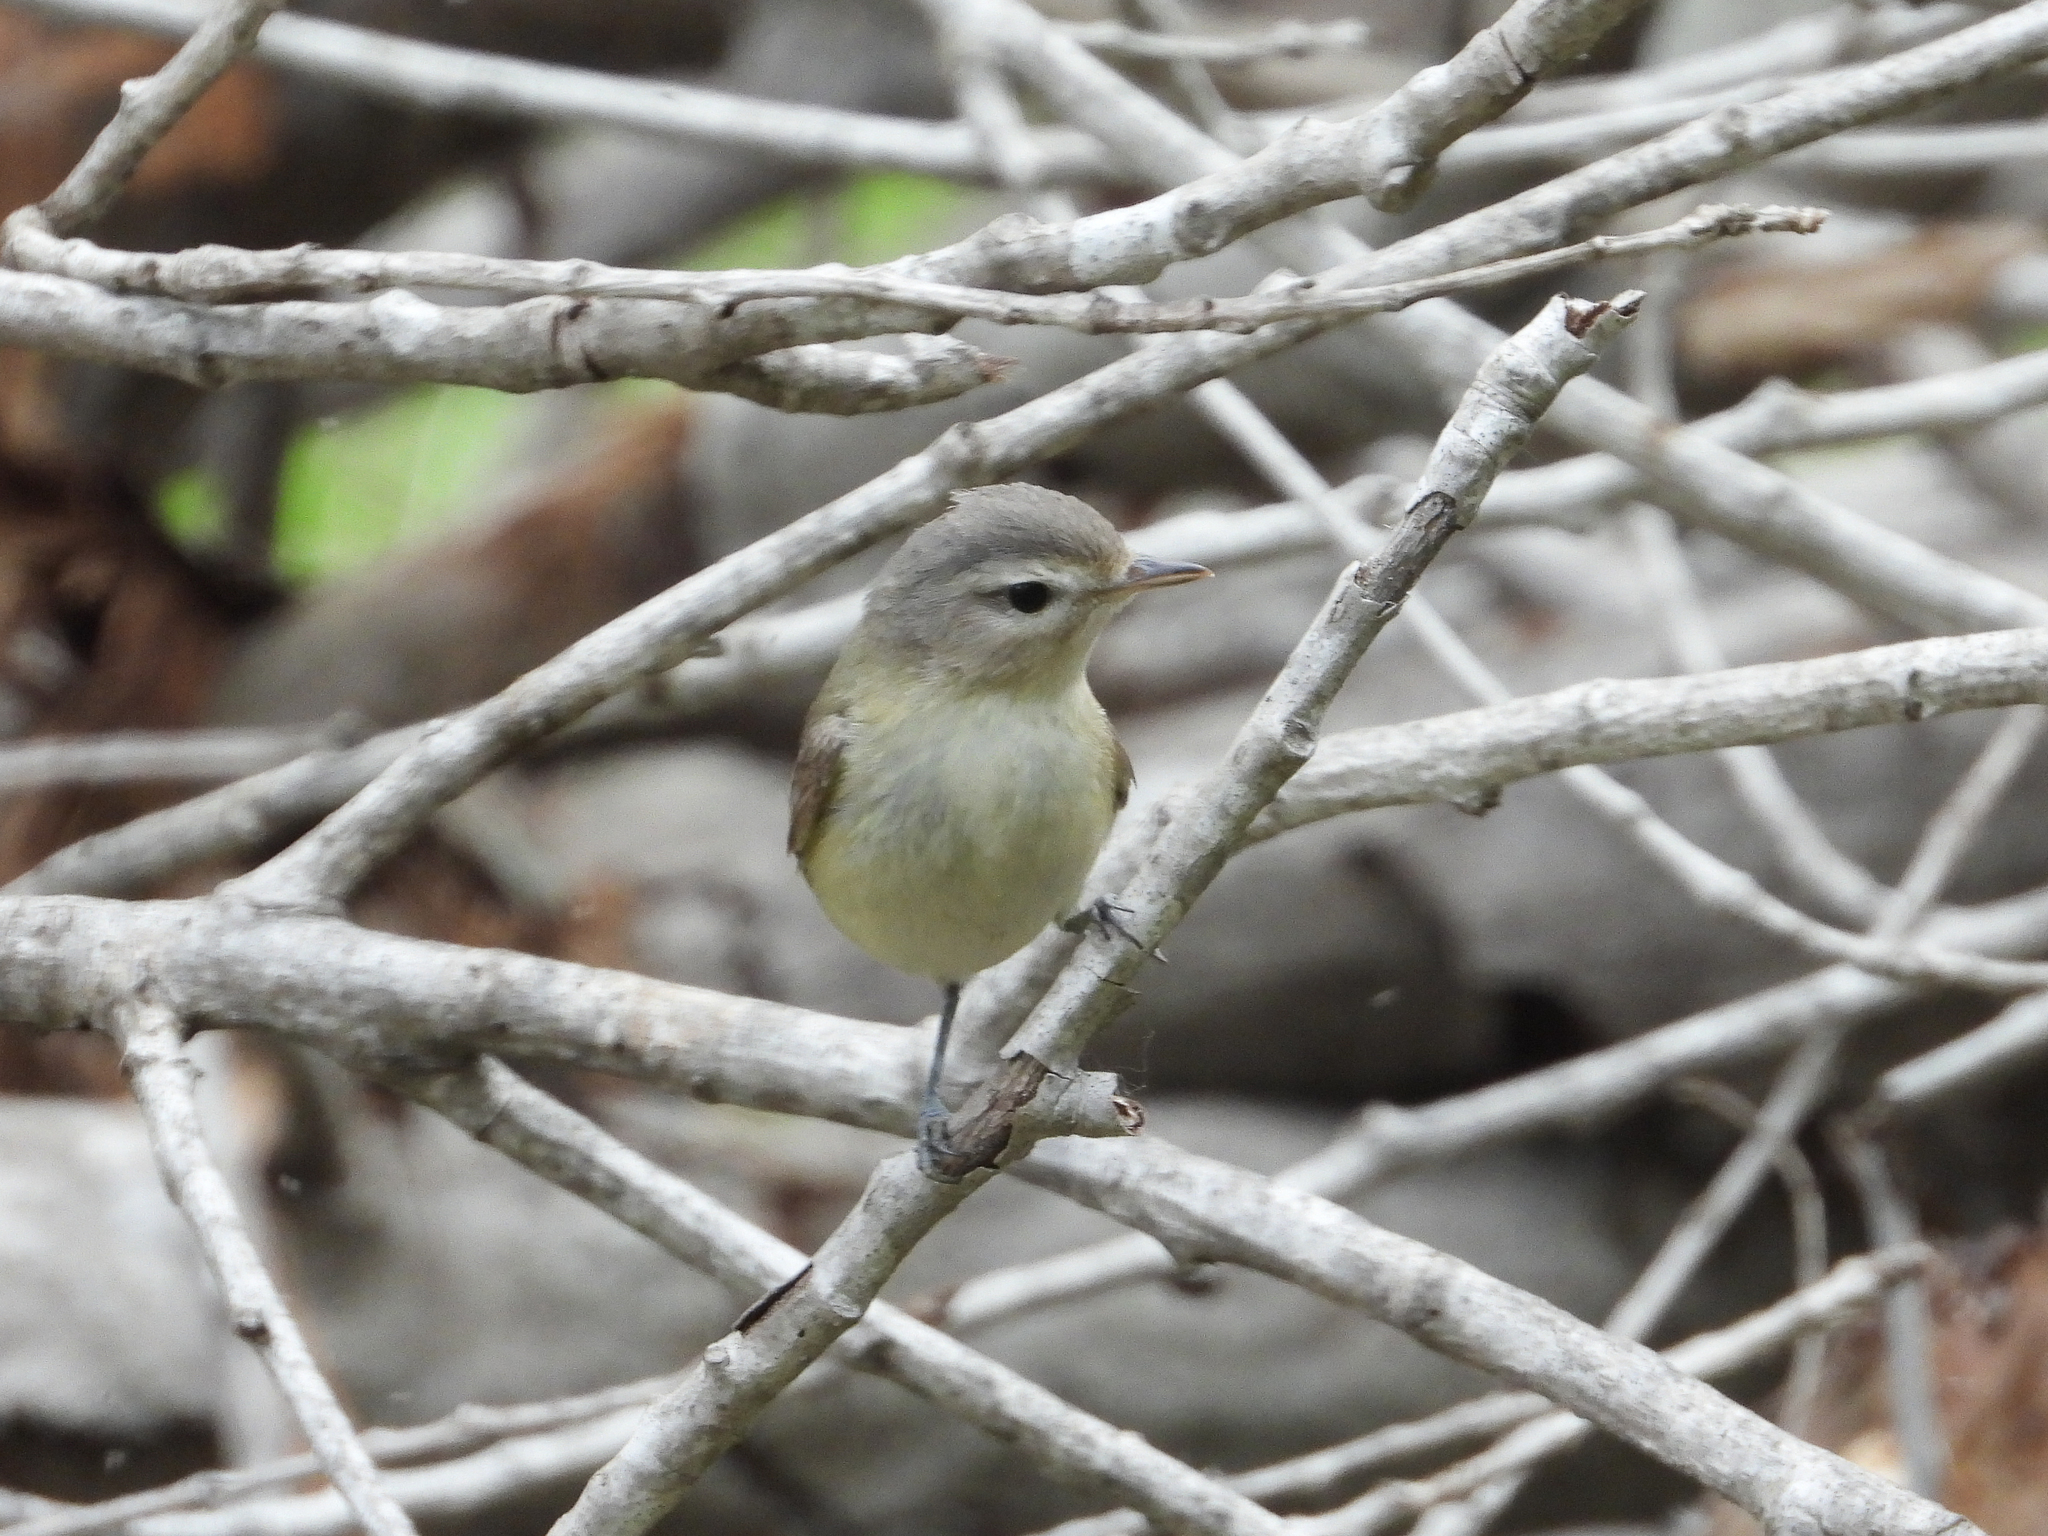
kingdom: Animalia
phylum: Chordata
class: Aves
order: Passeriformes
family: Vireonidae
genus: Vireo
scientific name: Vireo gilvus
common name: Warbling vireo
